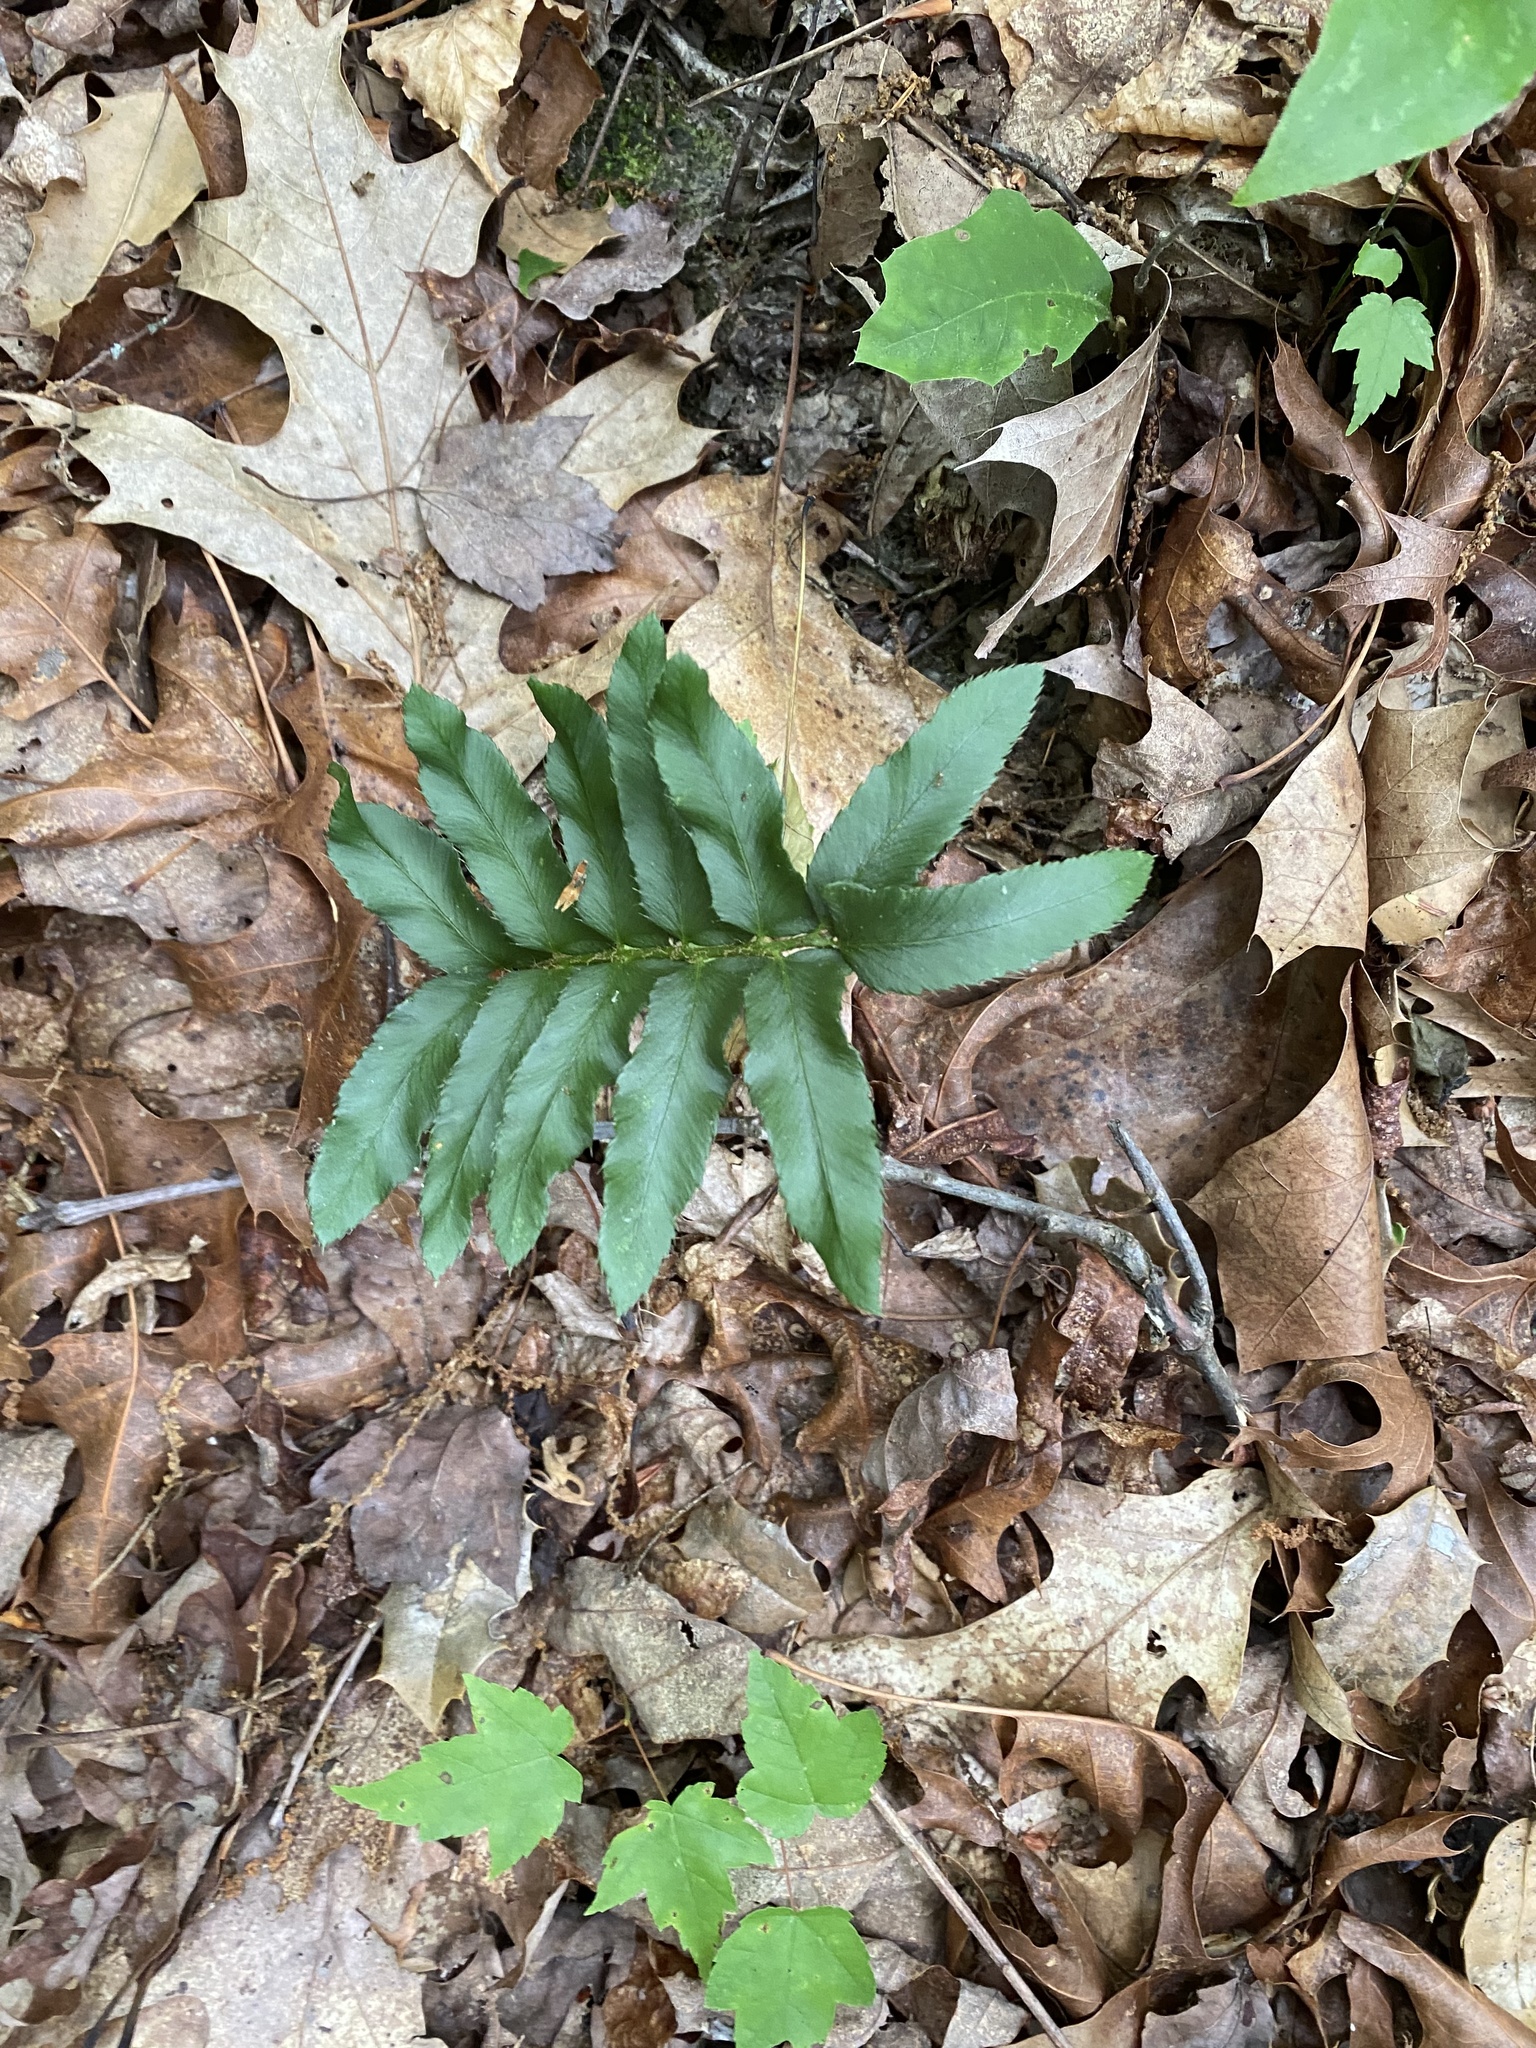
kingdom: Plantae
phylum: Tracheophyta
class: Polypodiopsida
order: Polypodiales
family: Dryopteridaceae
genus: Polystichum
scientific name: Polystichum acrostichoides
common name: Christmas fern
